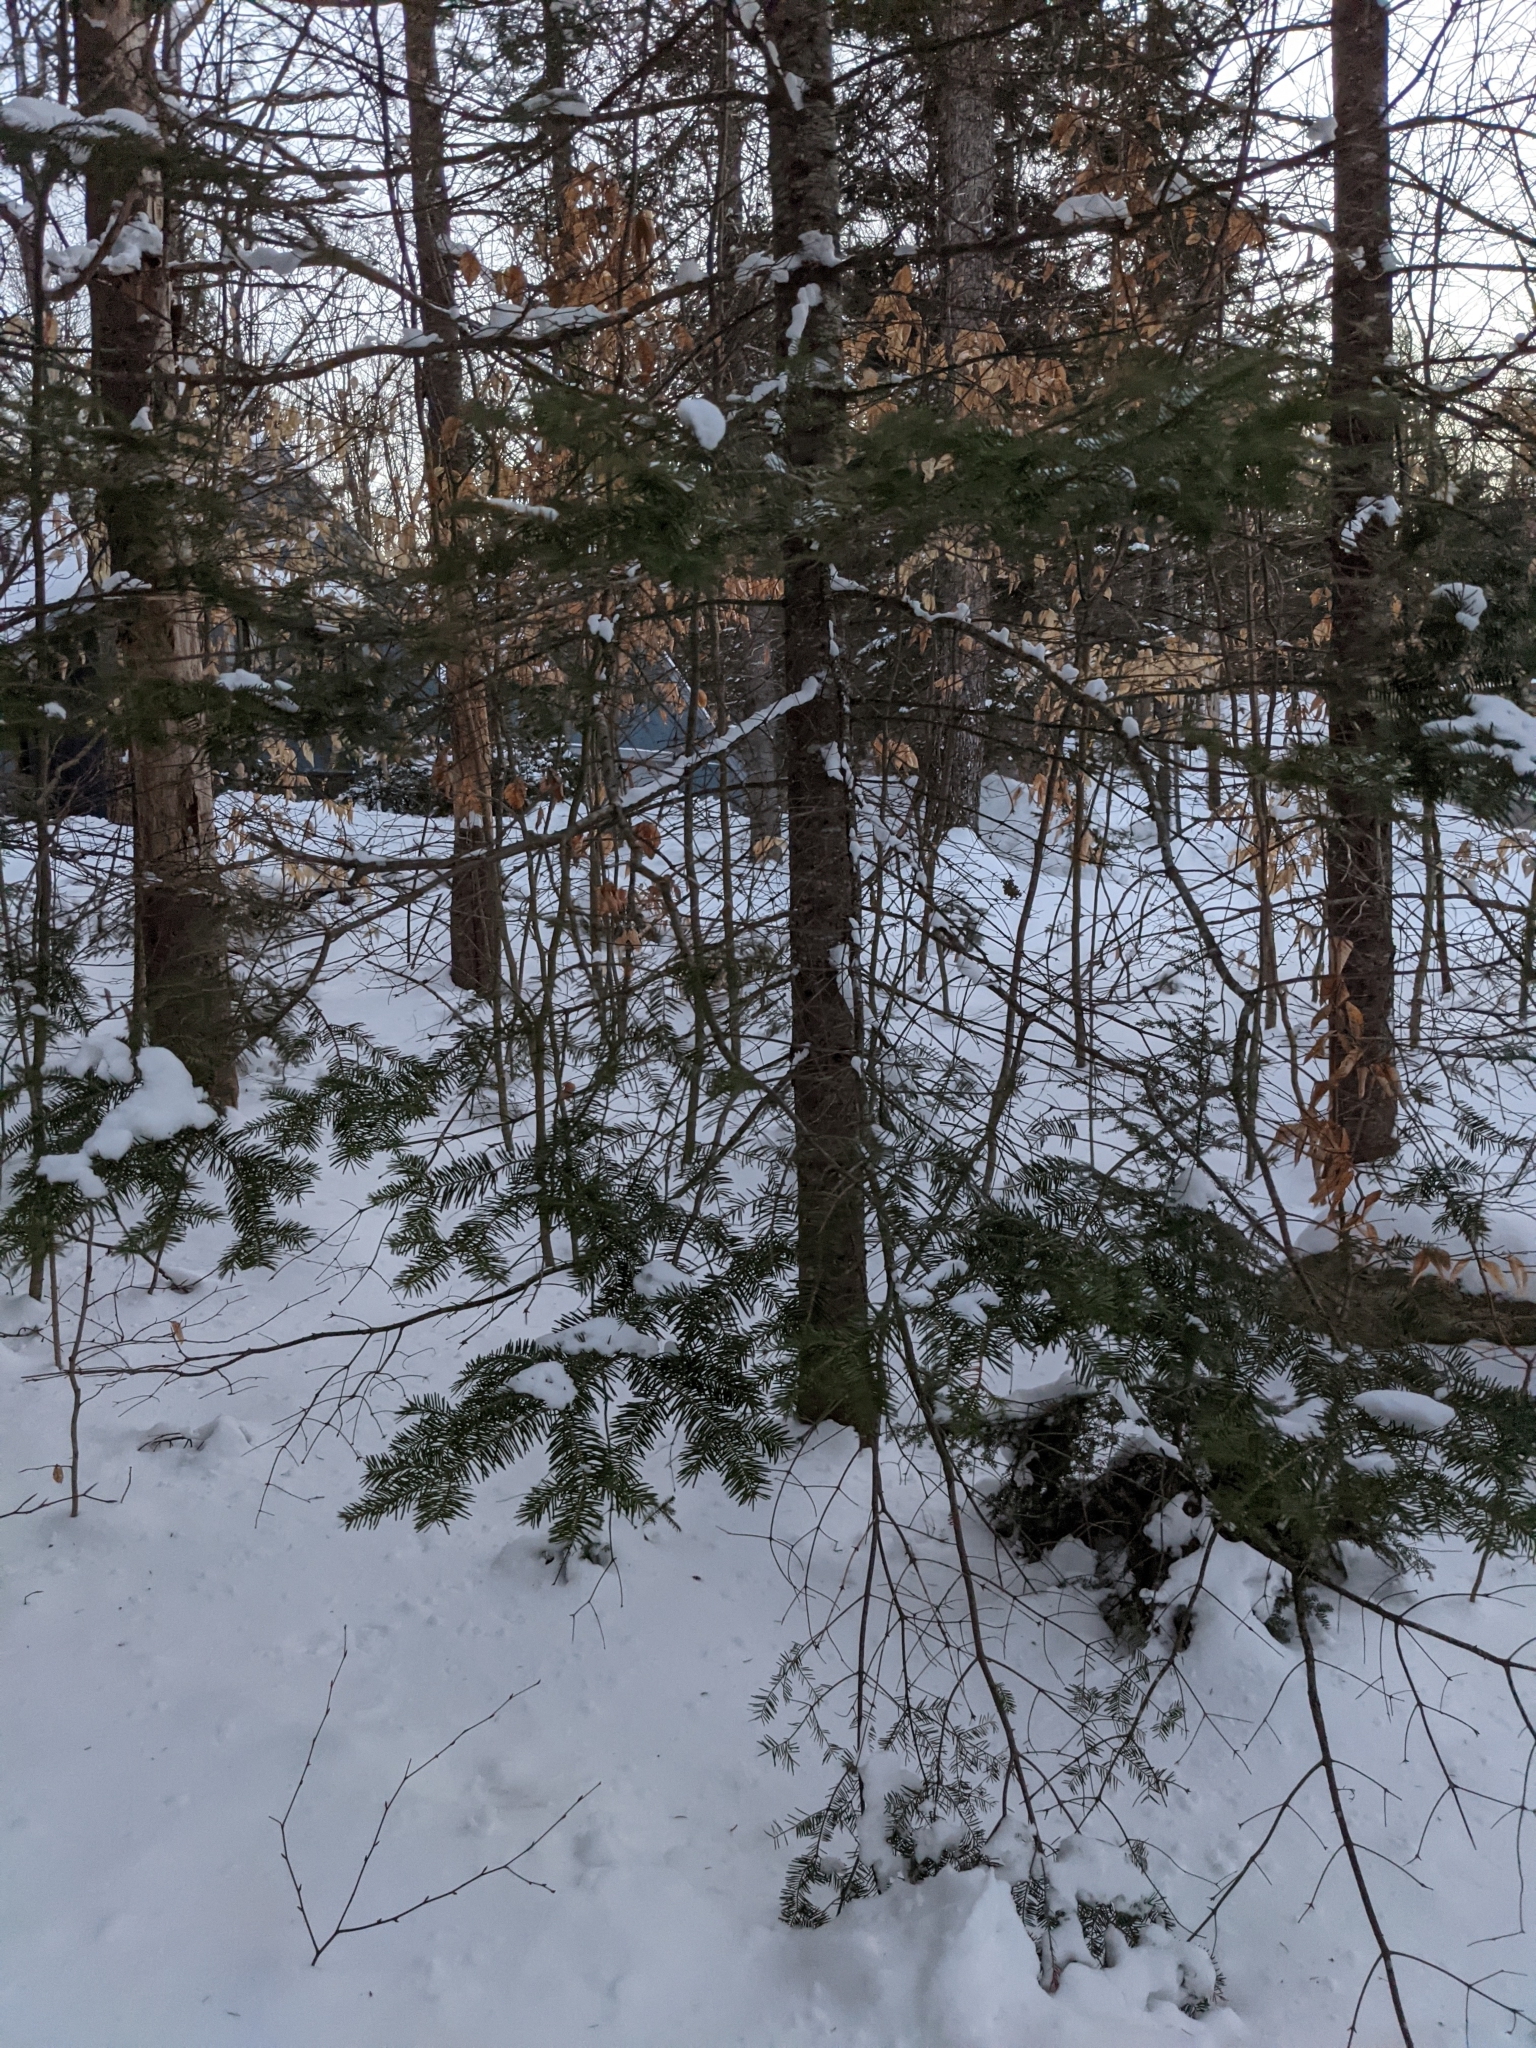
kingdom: Plantae
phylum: Tracheophyta
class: Pinopsida
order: Pinales
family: Pinaceae
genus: Abies
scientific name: Abies balsamea
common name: Balsam fir
